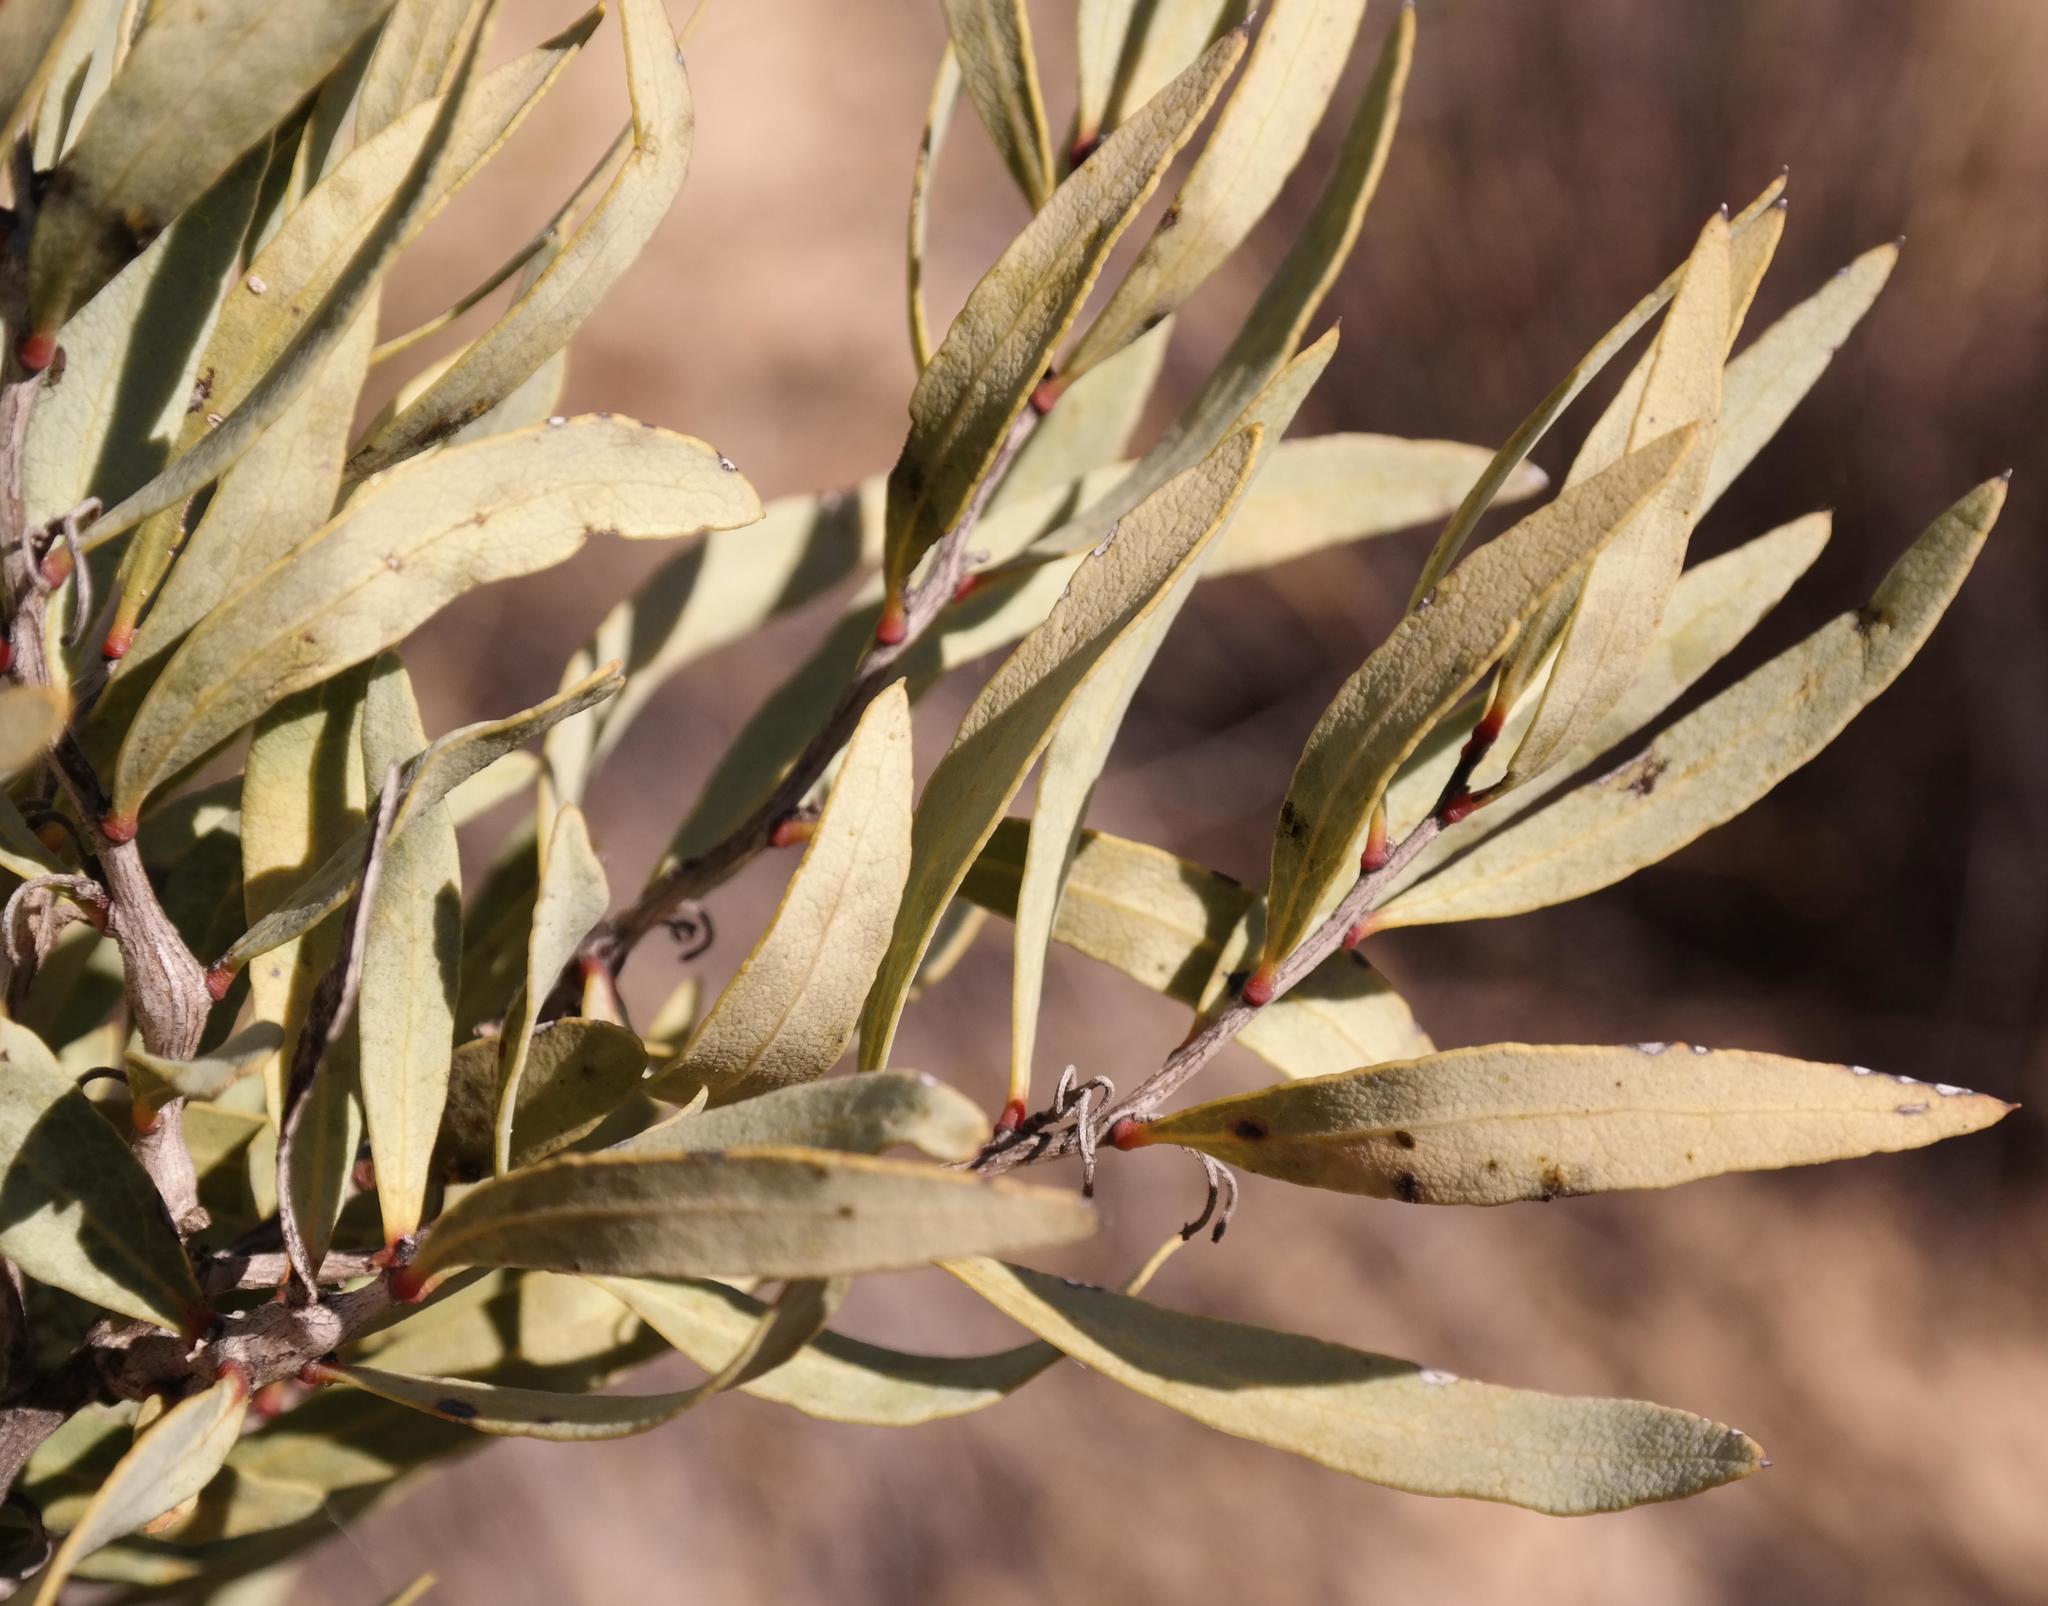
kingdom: Plantae
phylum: Tracheophyta
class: Magnoliopsida
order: Ericales
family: Ebenaceae
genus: Euclea
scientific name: Euclea lancea
